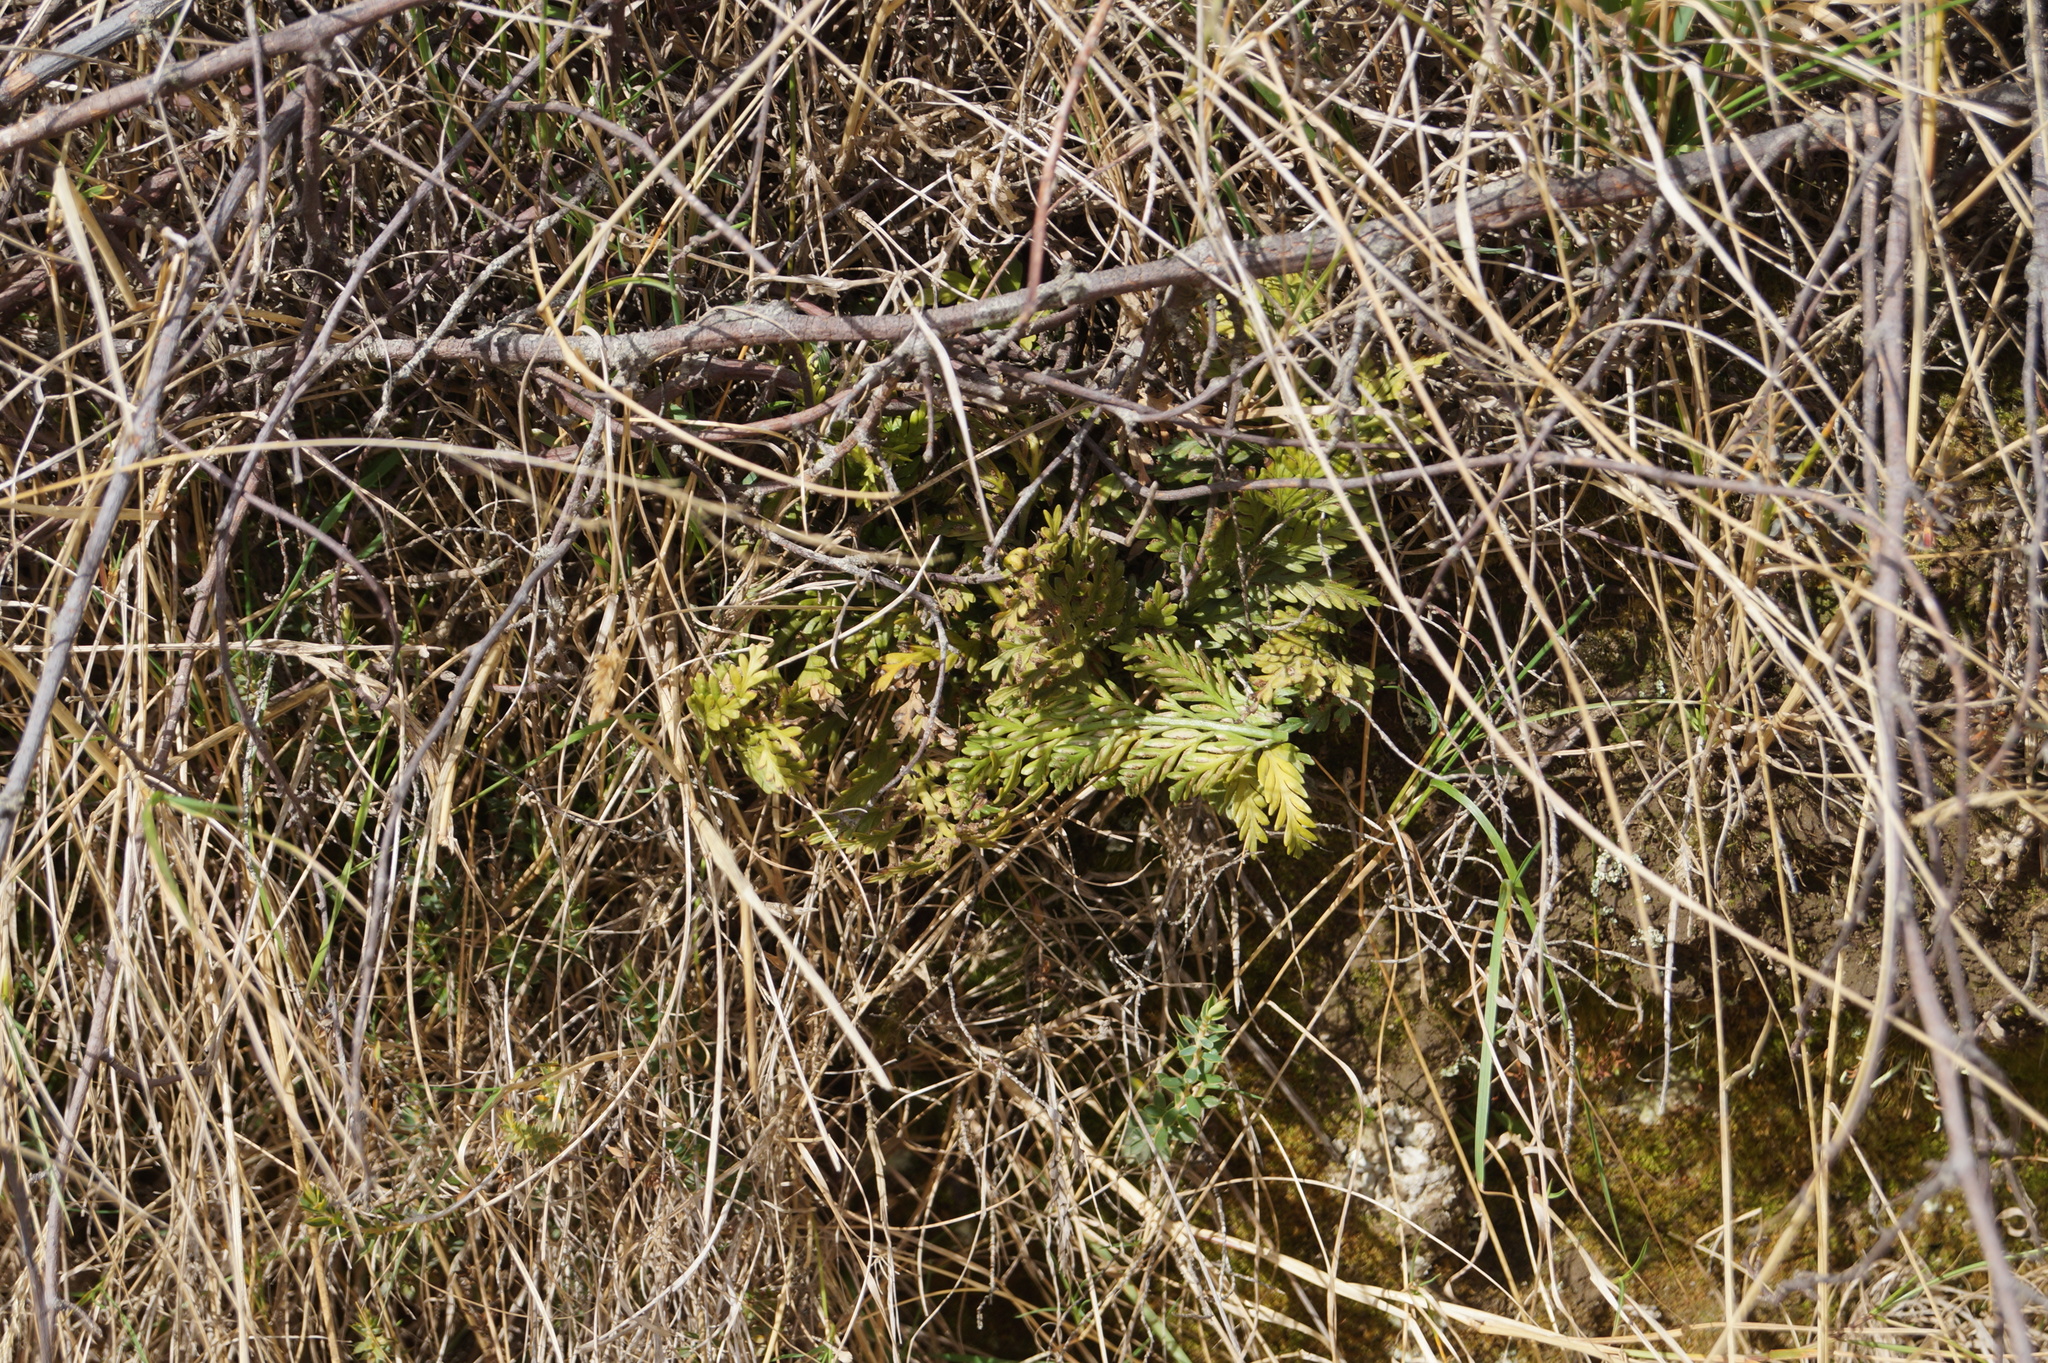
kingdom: Plantae
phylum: Tracheophyta
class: Polypodiopsida
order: Polypodiales
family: Aspleniaceae
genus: Asplenium
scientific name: Asplenium appendiculatum
